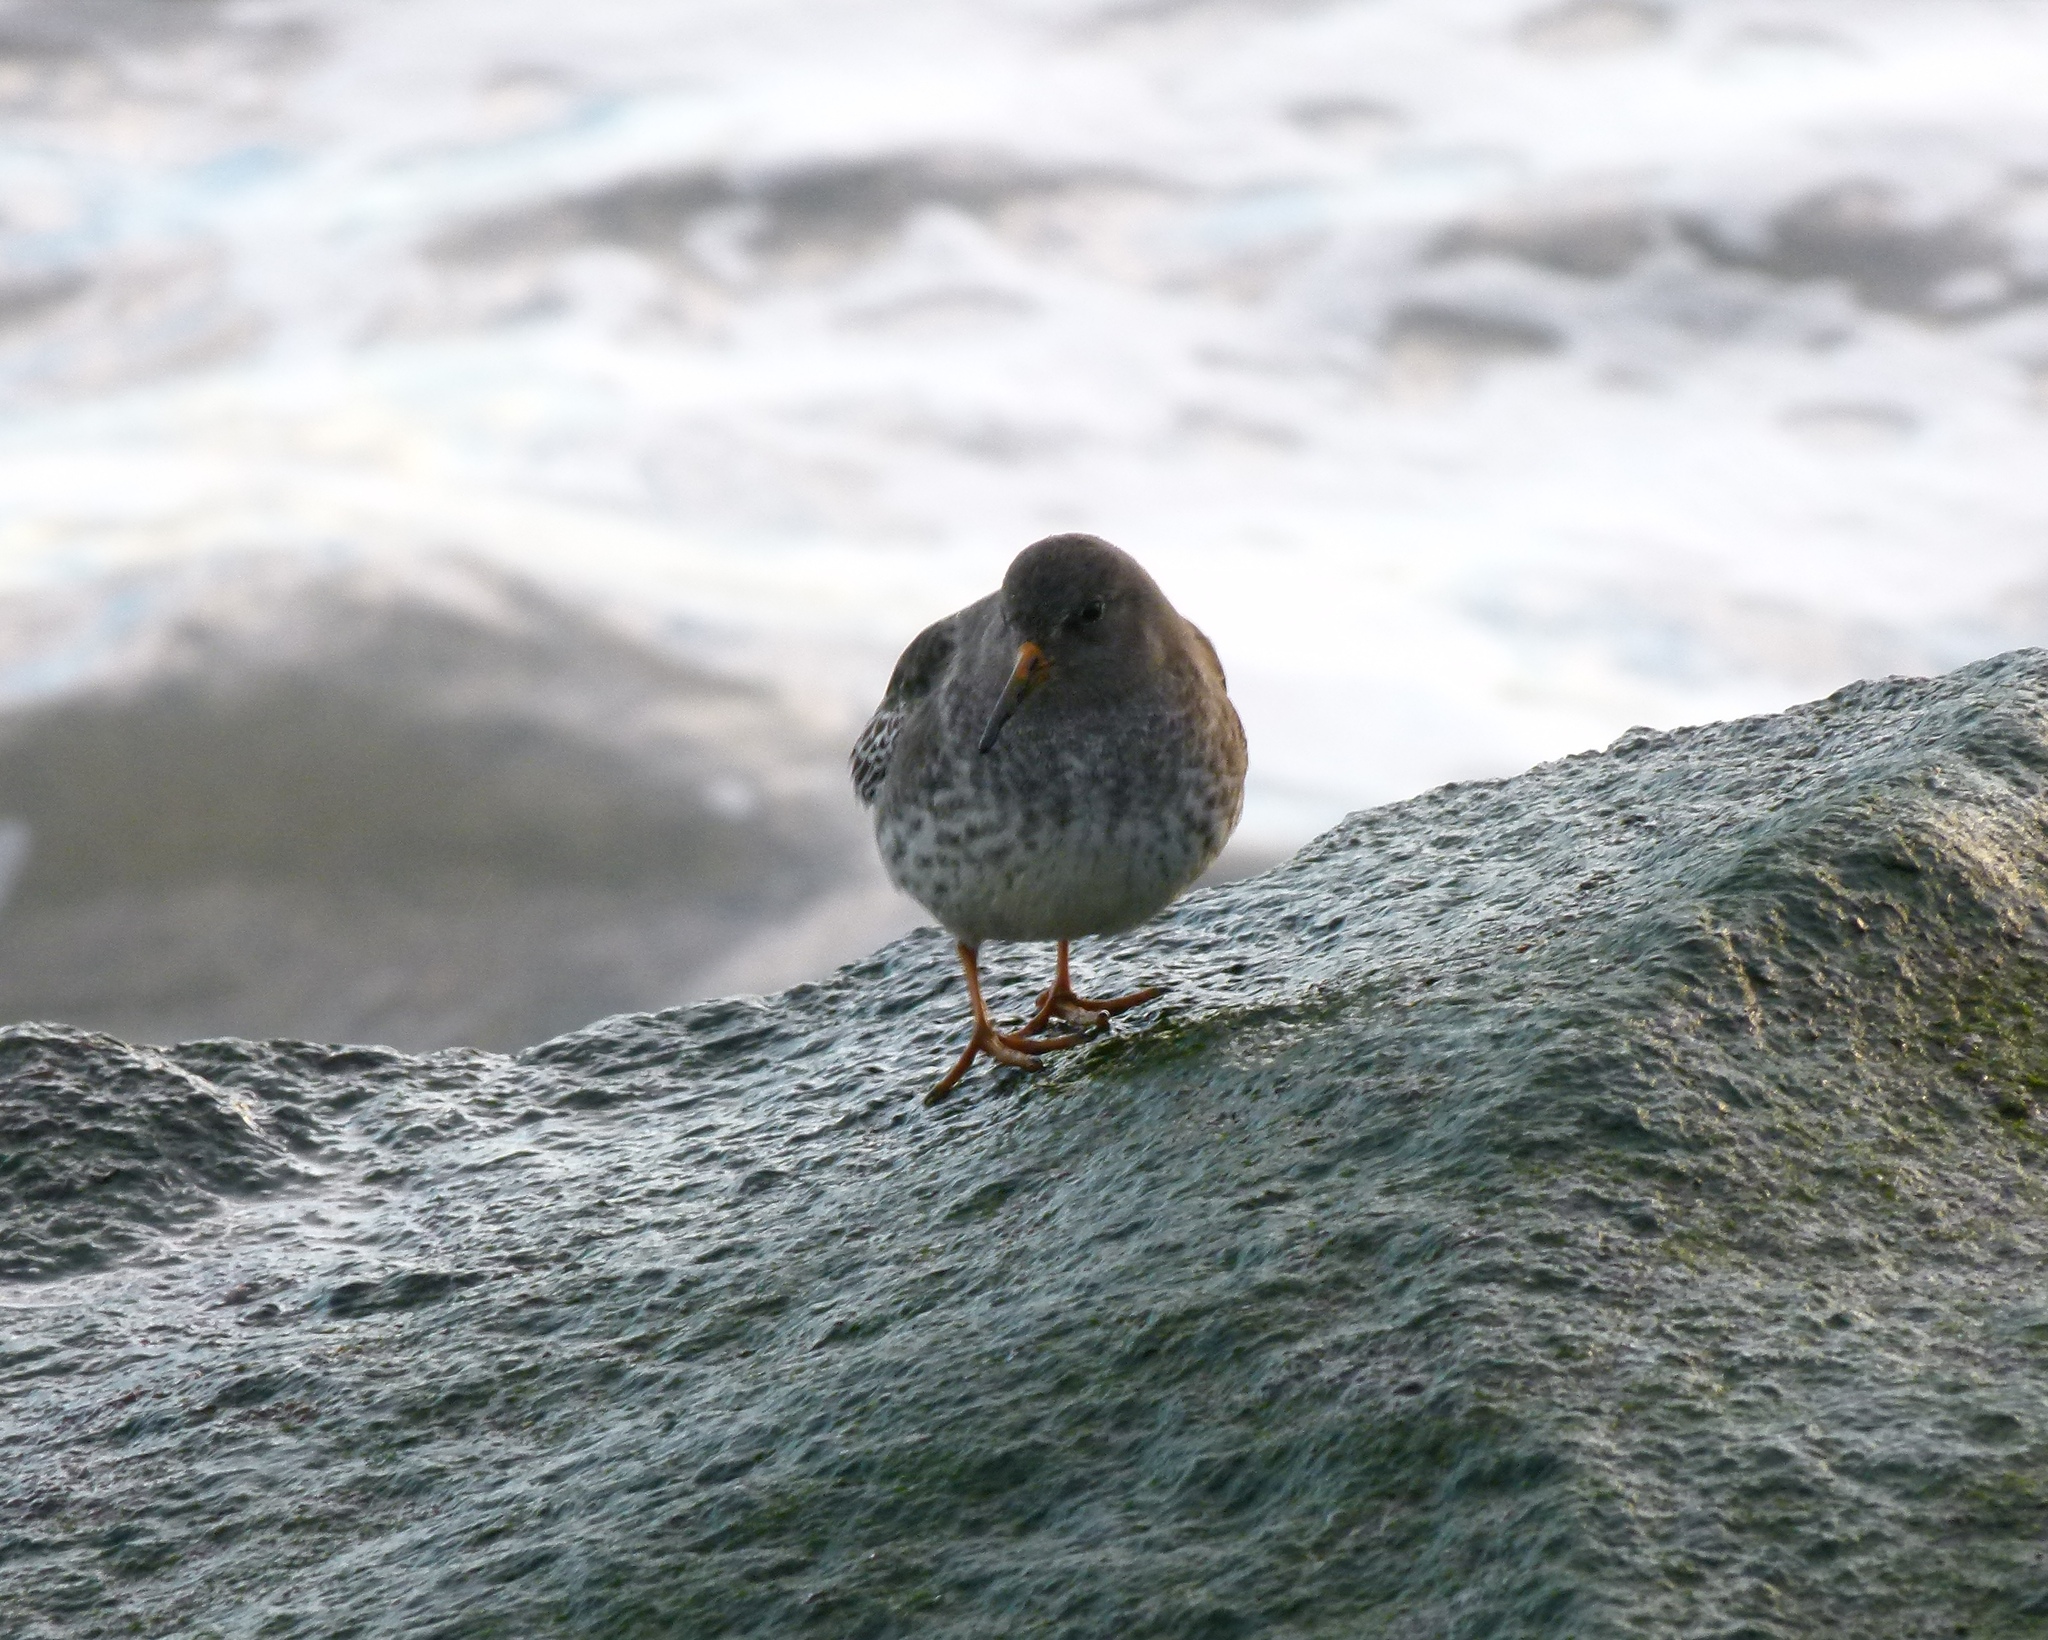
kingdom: Animalia
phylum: Chordata
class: Aves
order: Charadriiformes
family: Scolopacidae
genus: Calidris
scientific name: Calidris maritima
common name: Purple sandpiper
